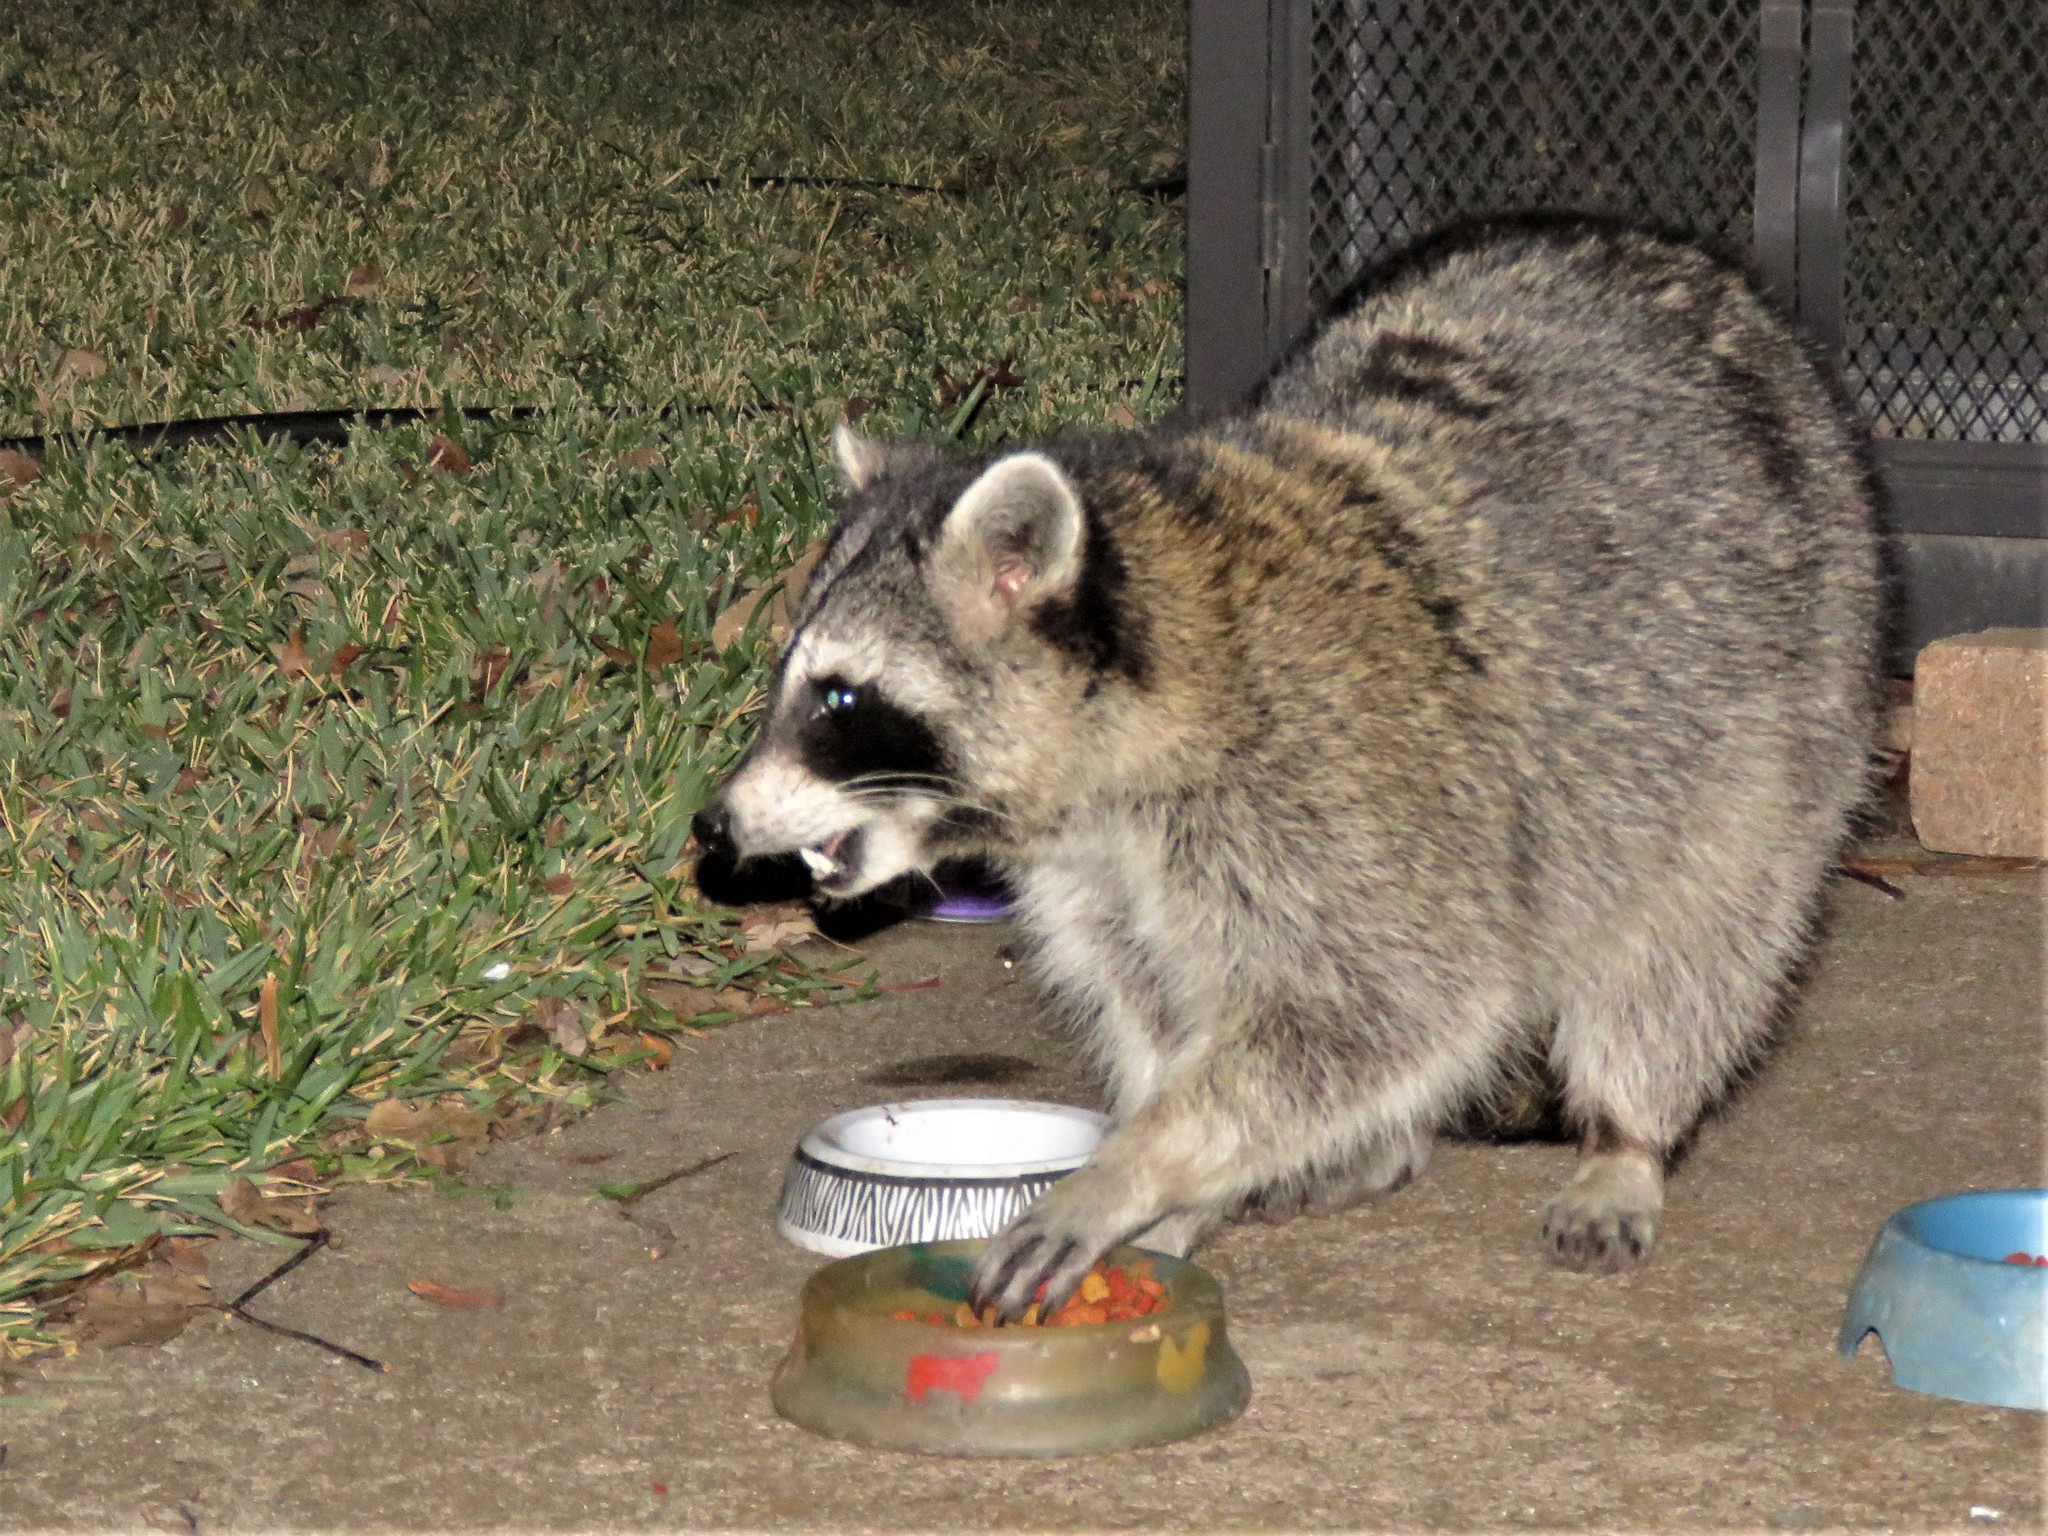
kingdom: Animalia
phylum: Chordata
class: Mammalia
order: Carnivora
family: Procyonidae
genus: Procyon
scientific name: Procyon lotor
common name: Raccoon
